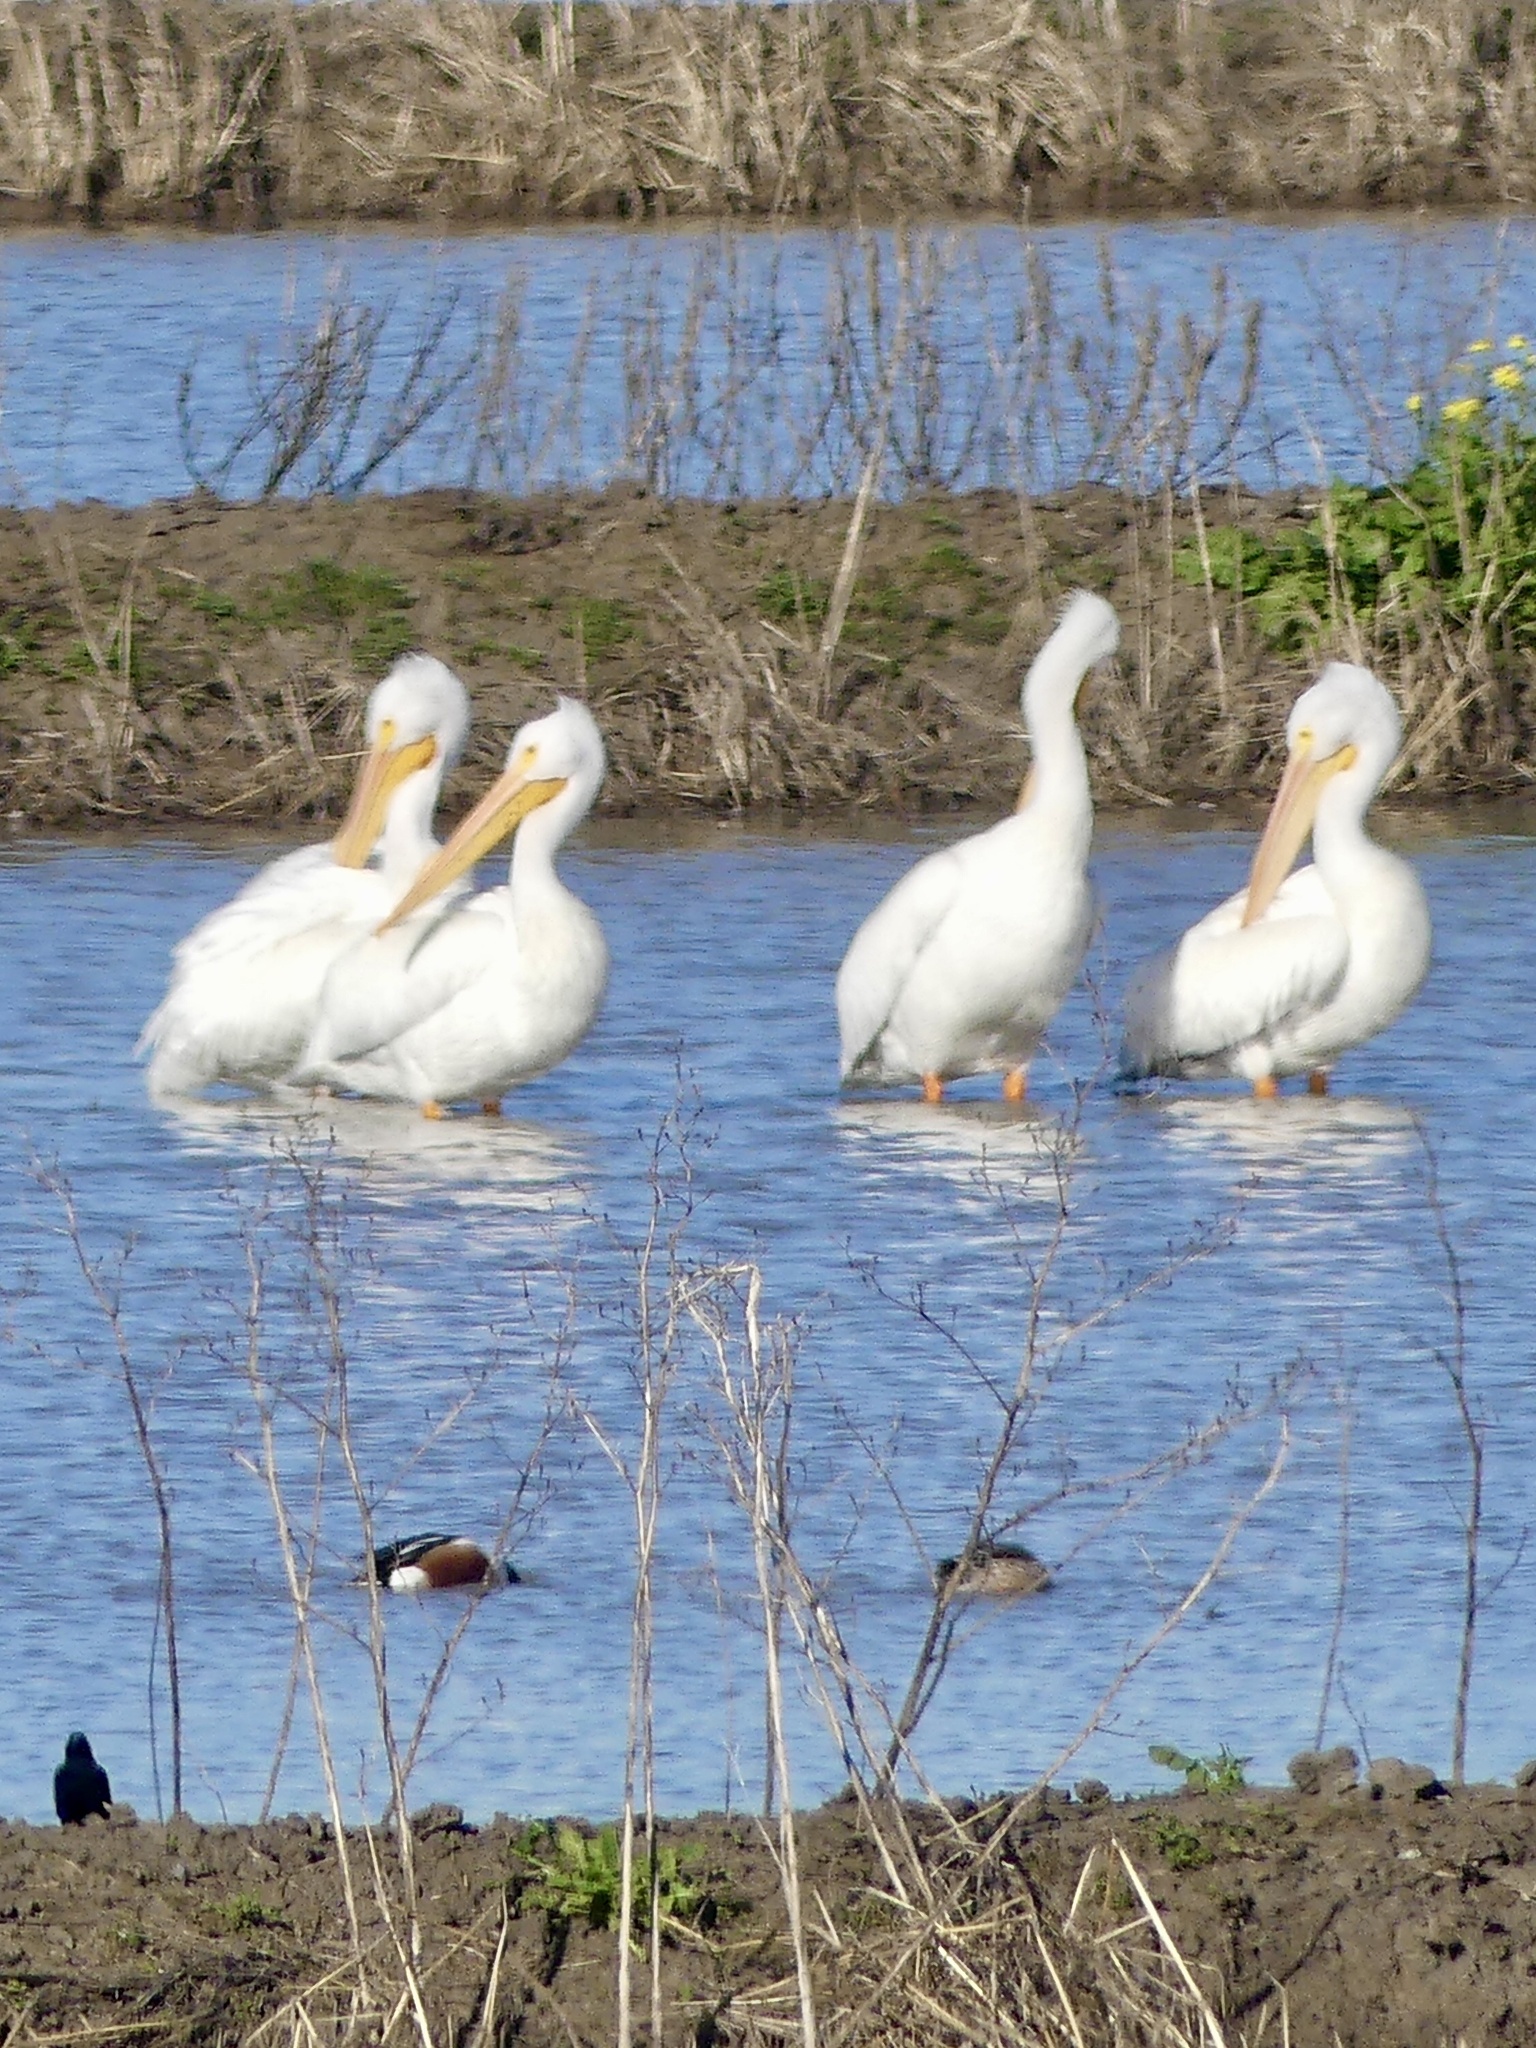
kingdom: Animalia
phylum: Chordata
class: Aves
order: Pelecaniformes
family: Pelecanidae
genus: Pelecanus
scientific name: Pelecanus erythrorhynchos
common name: American white pelican
